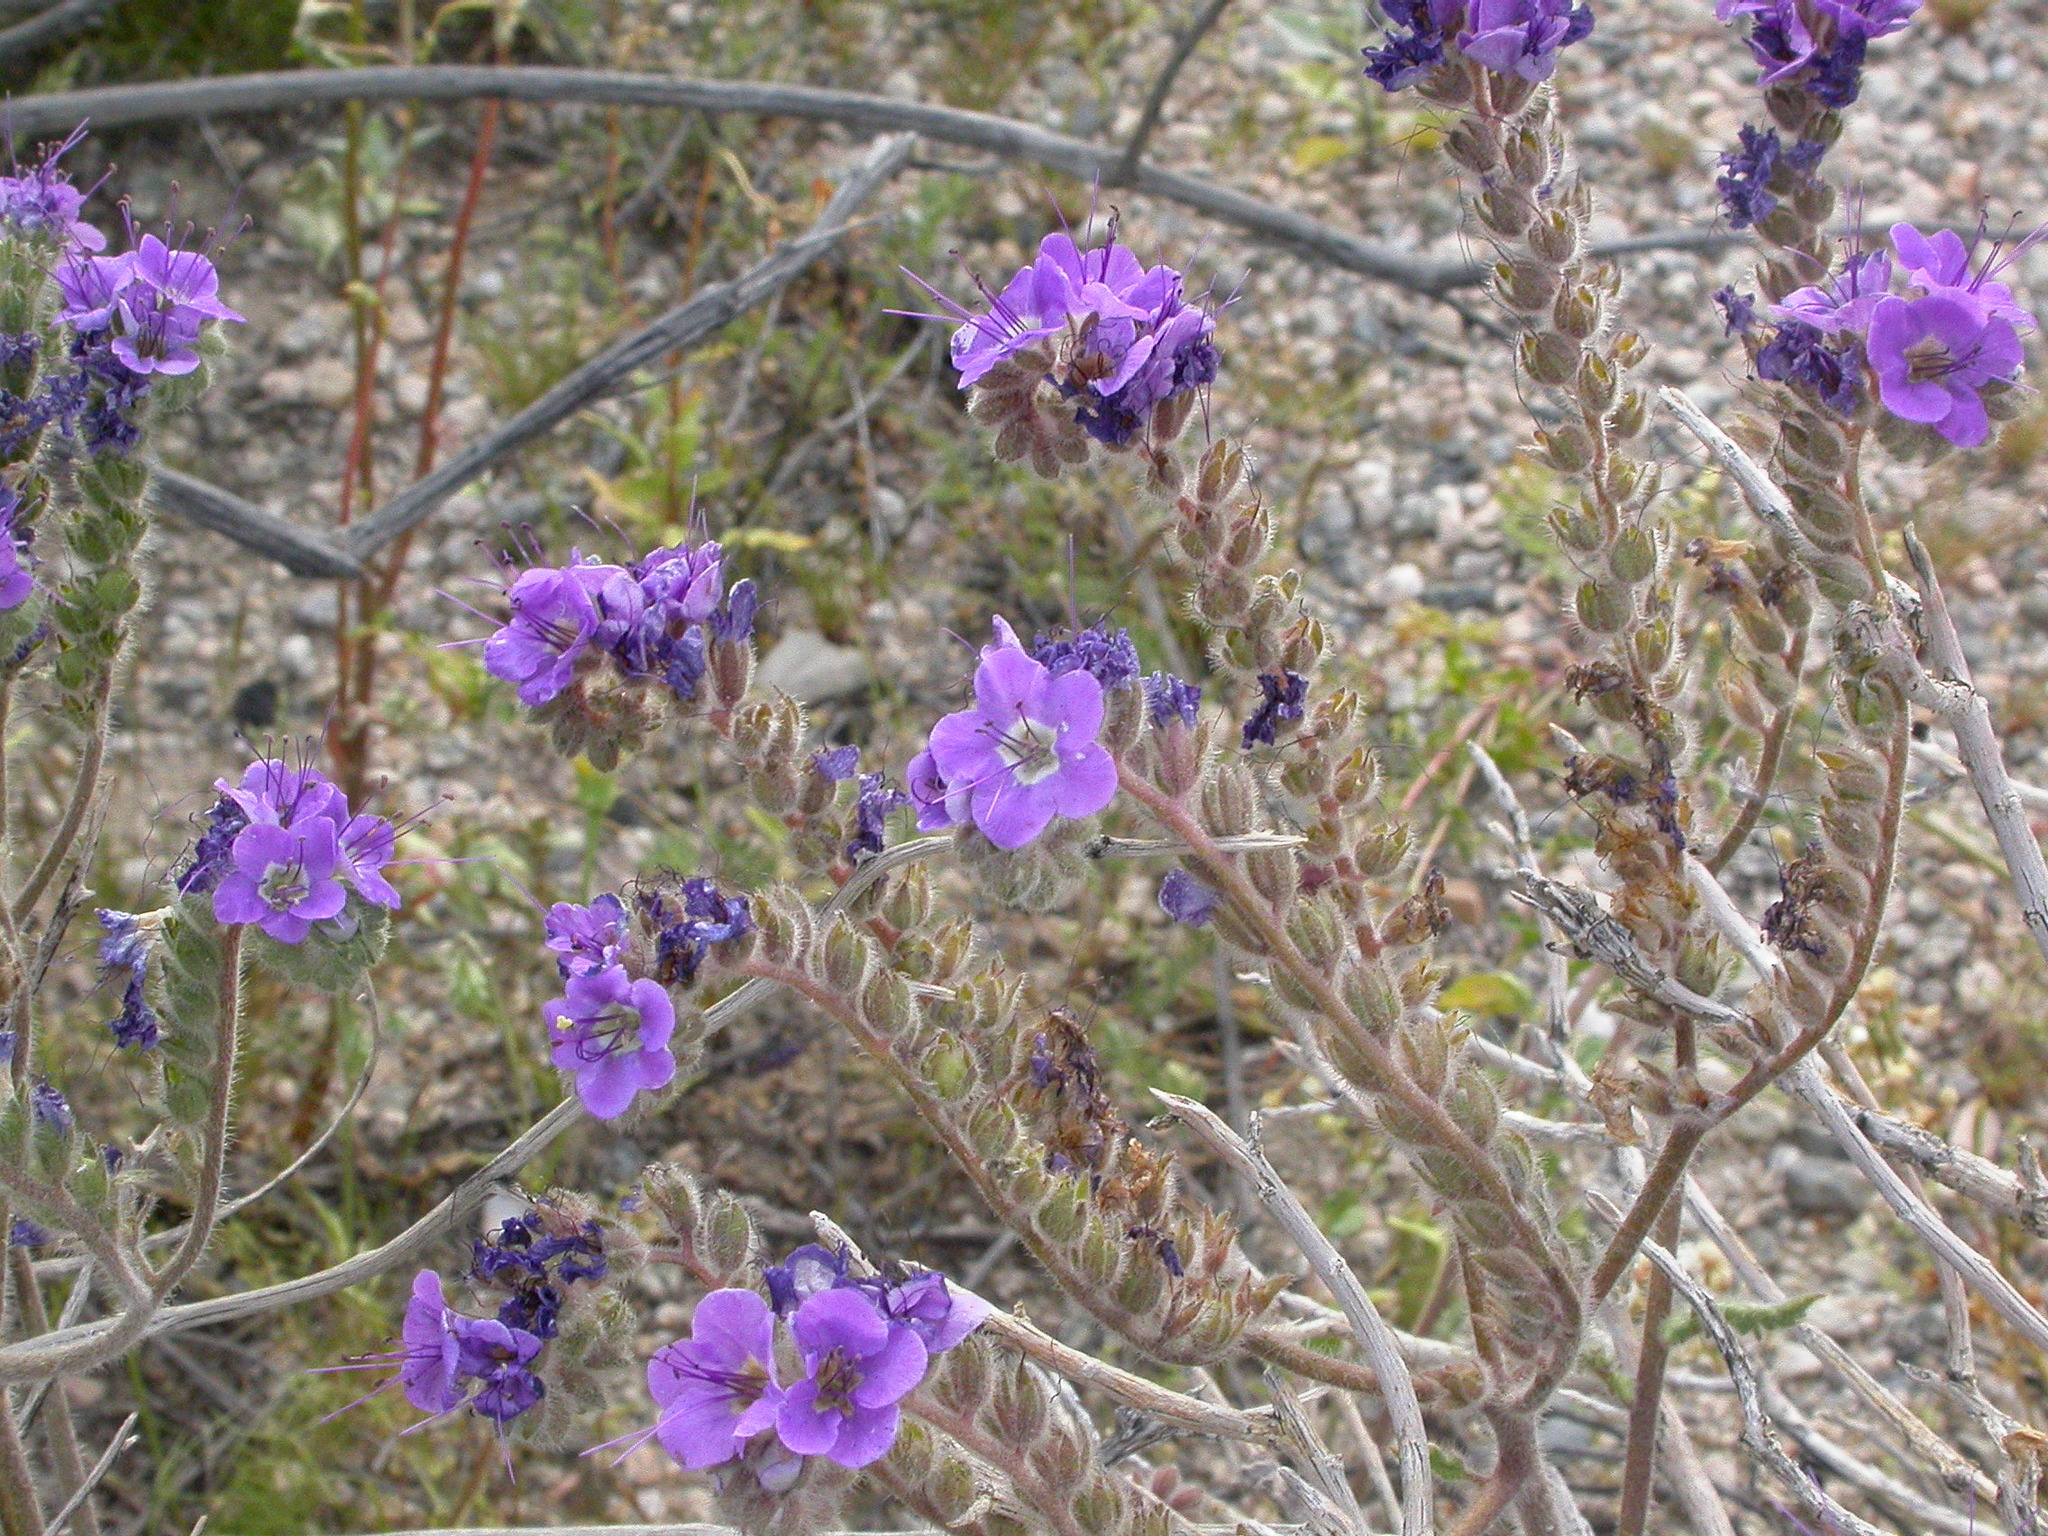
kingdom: Plantae
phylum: Tracheophyta
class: Magnoliopsida
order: Boraginales
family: Hydrophyllaceae
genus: Phacelia
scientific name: Phacelia crenulata
